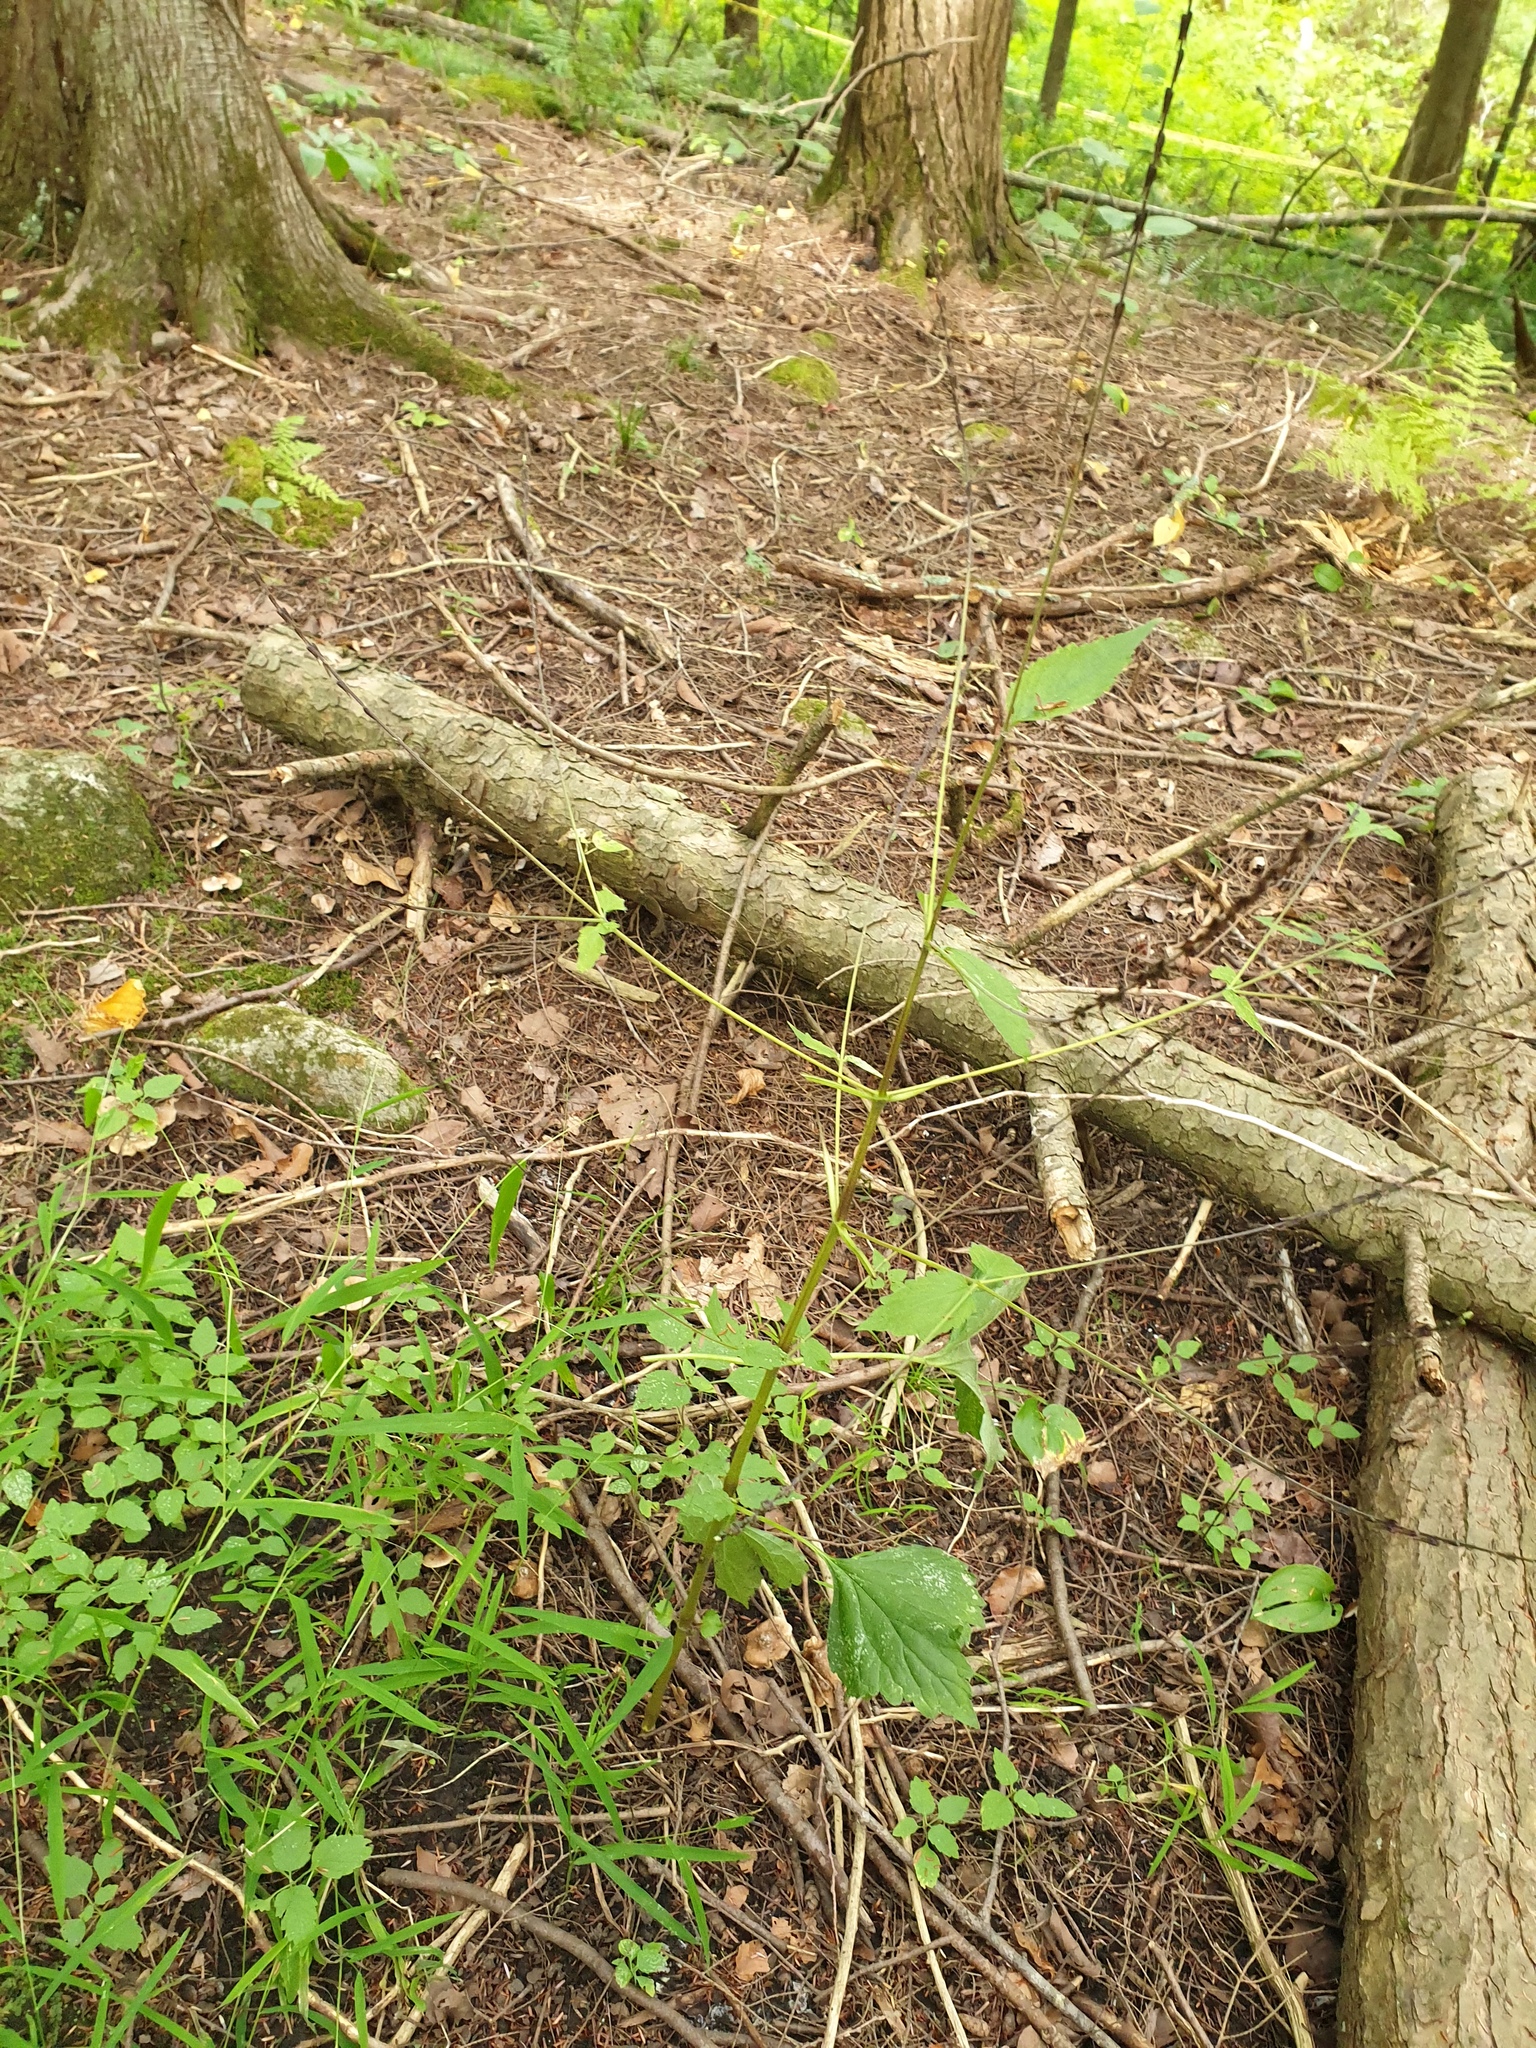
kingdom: Plantae
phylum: Tracheophyta
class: Magnoliopsida
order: Lamiales
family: Phrymaceae
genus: Phryma
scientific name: Phryma leptostachya
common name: American lopseed
